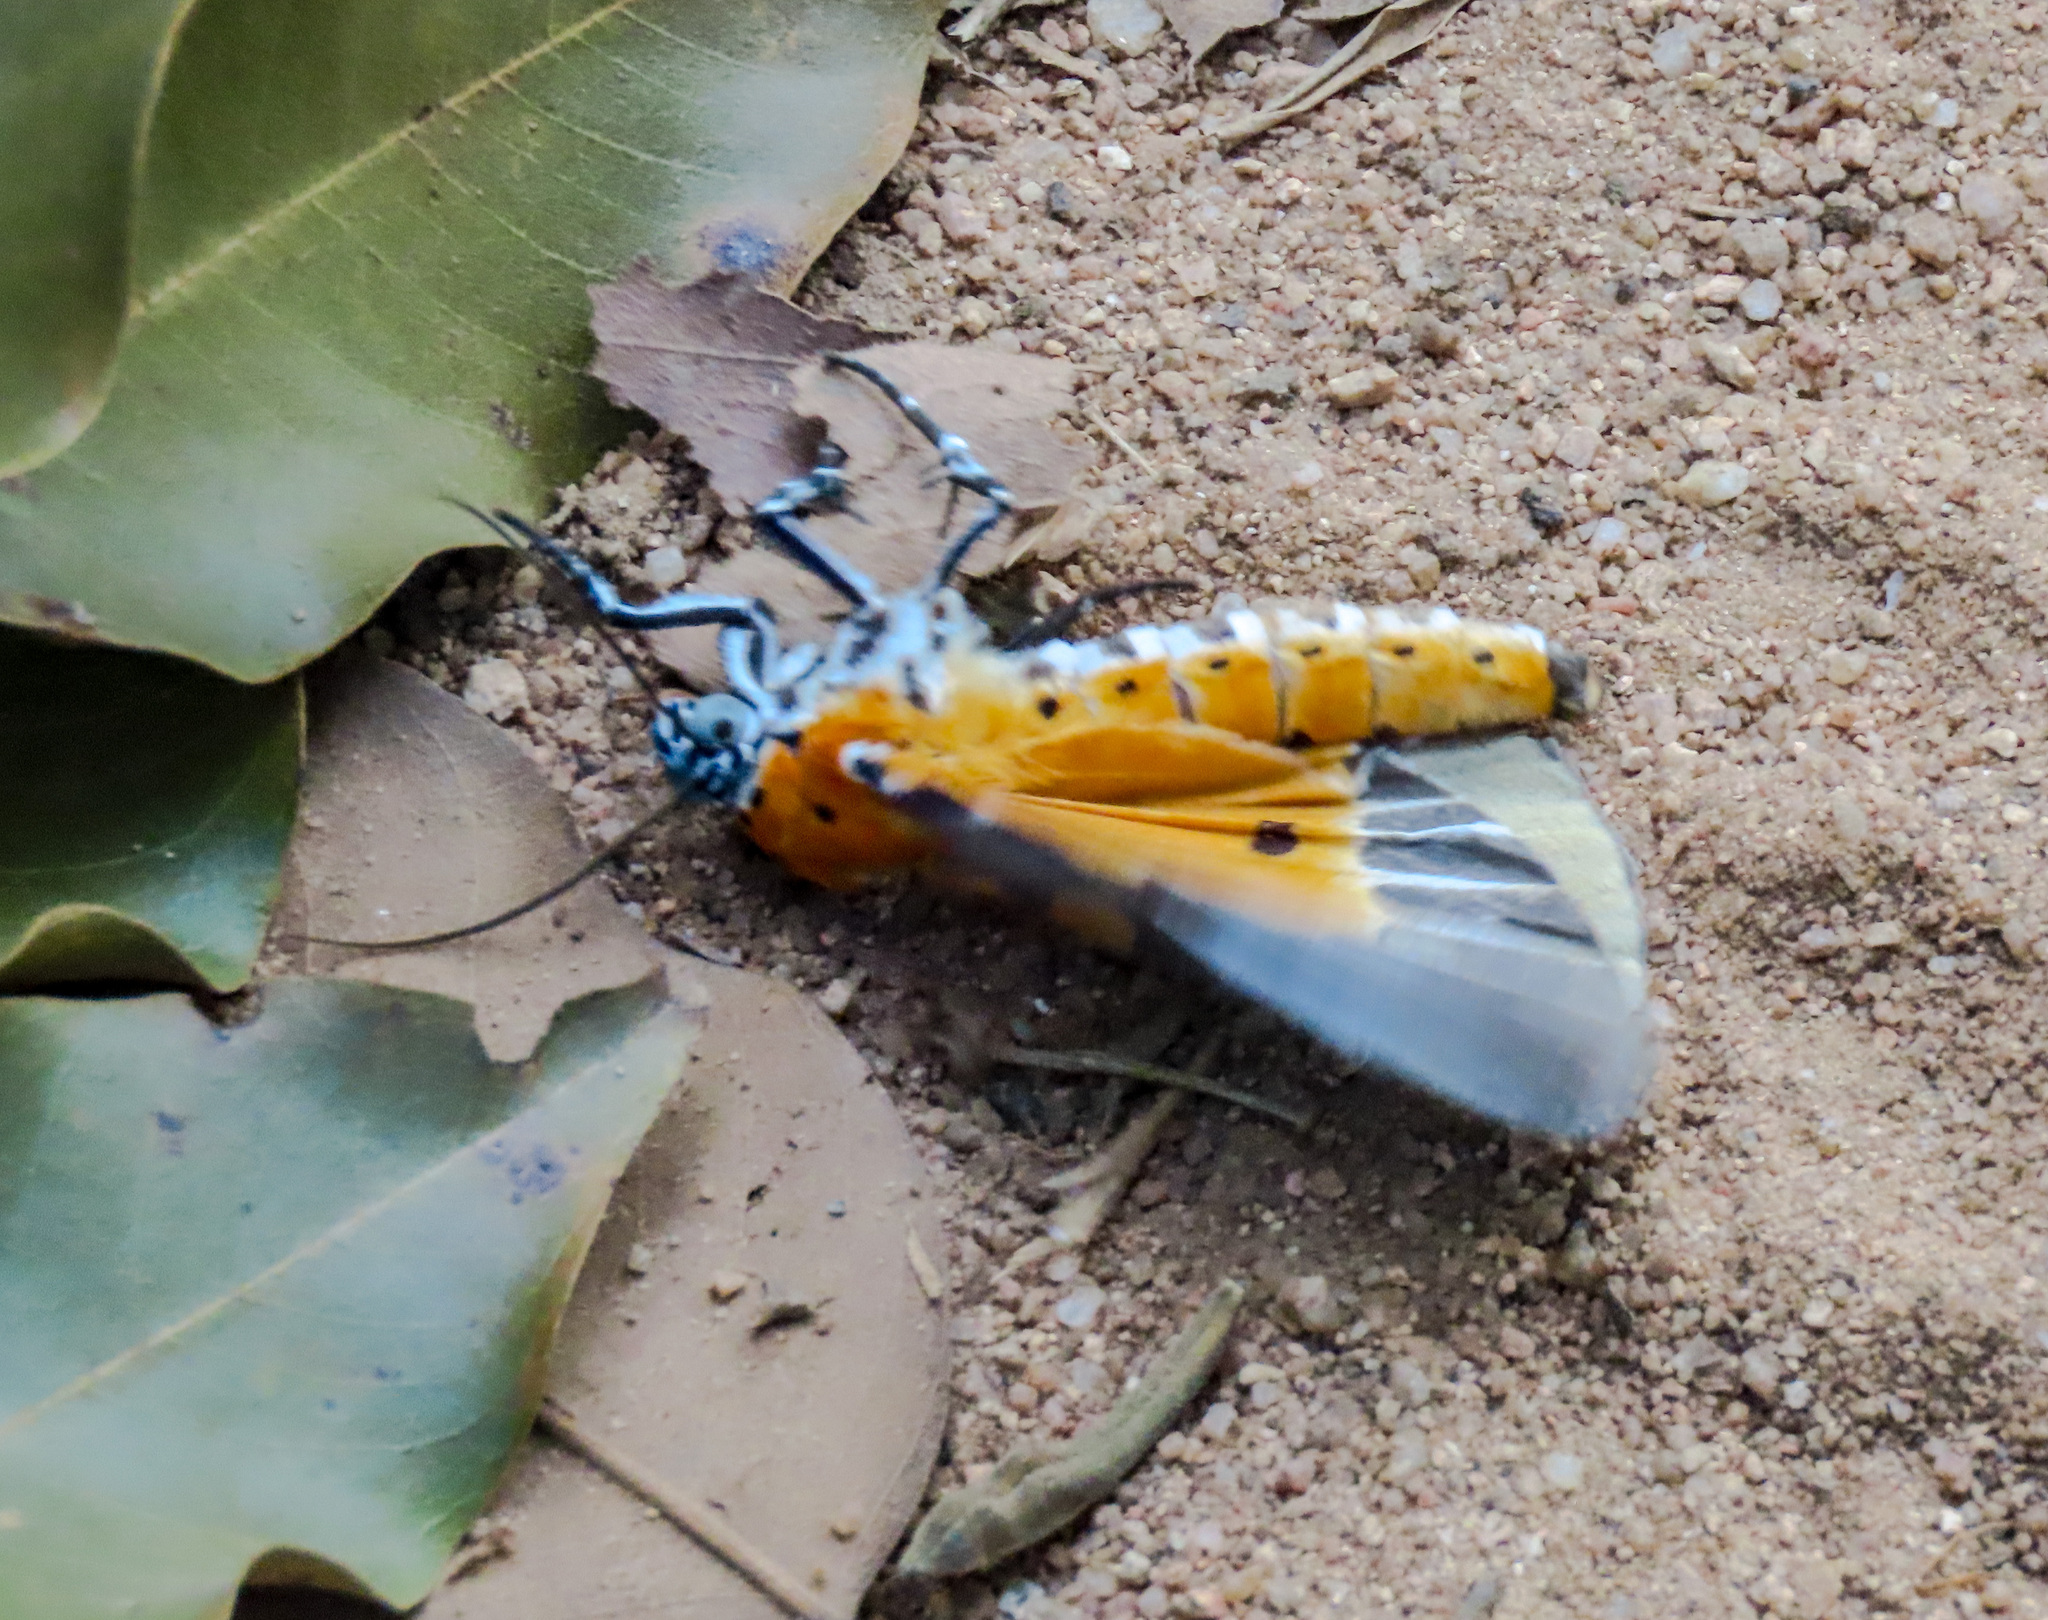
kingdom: Animalia
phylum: Arthropoda
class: Insecta
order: Lepidoptera
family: Erebidae
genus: Peridrome
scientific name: Peridrome orbicularis
